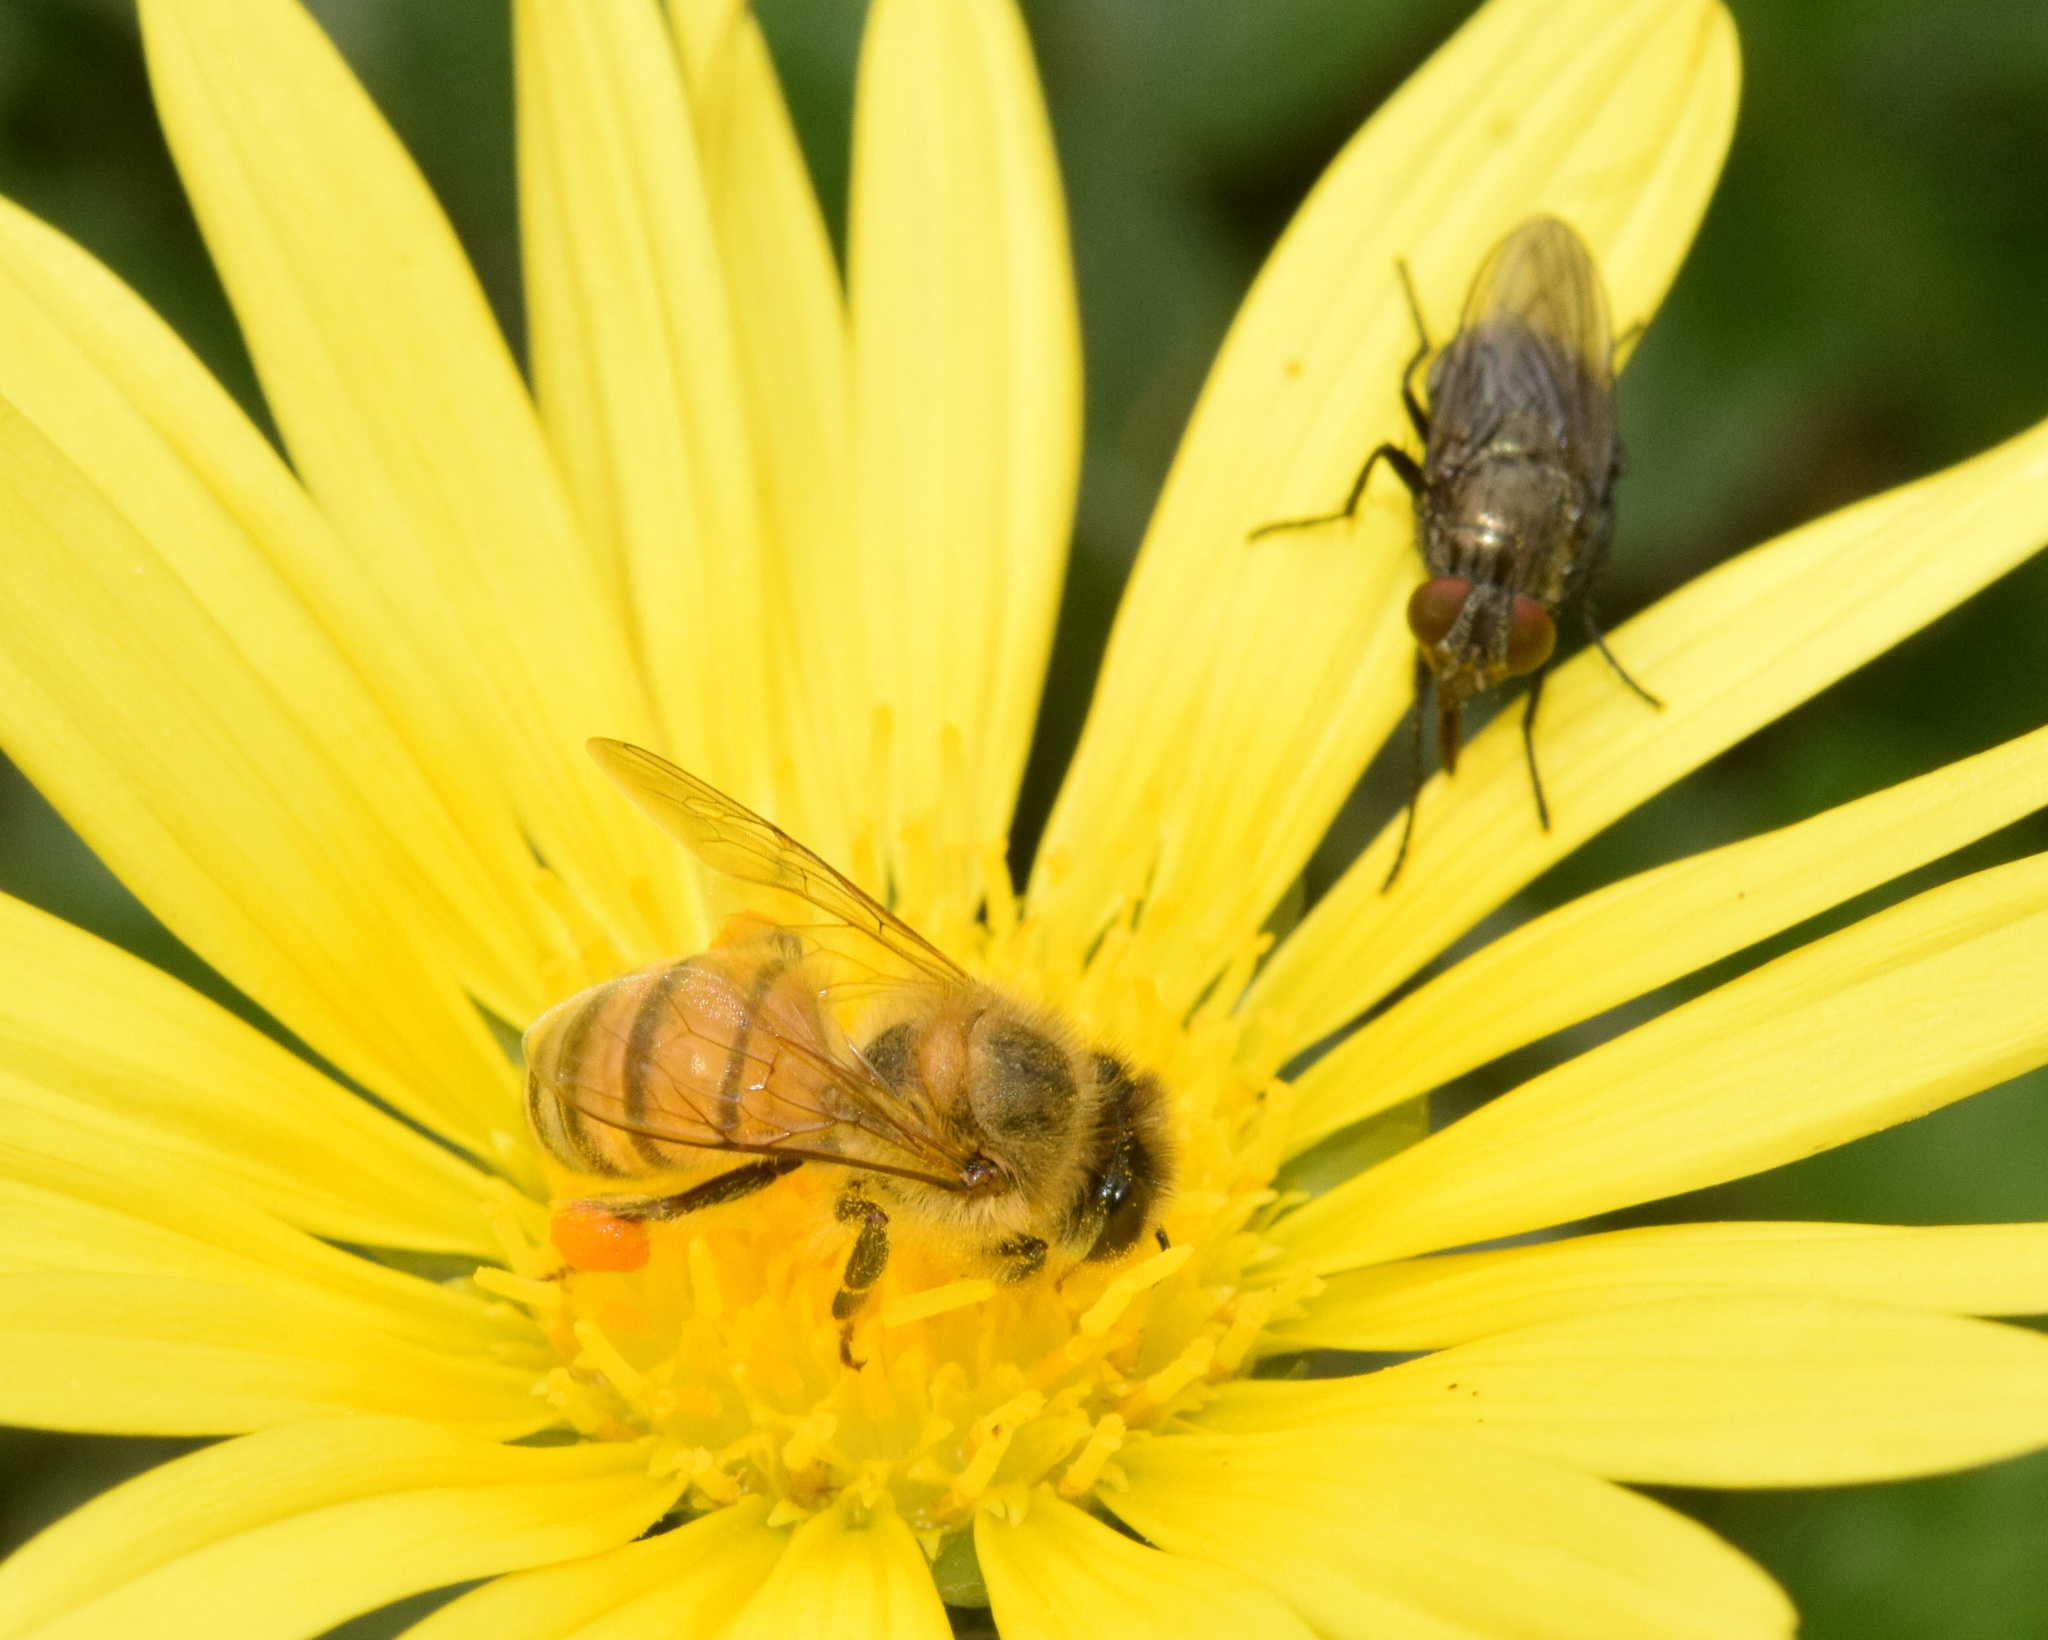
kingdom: Animalia
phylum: Arthropoda
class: Insecta
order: Hymenoptera
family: Apidae
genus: Apis
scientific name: Apis mellifera
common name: Honey bee
